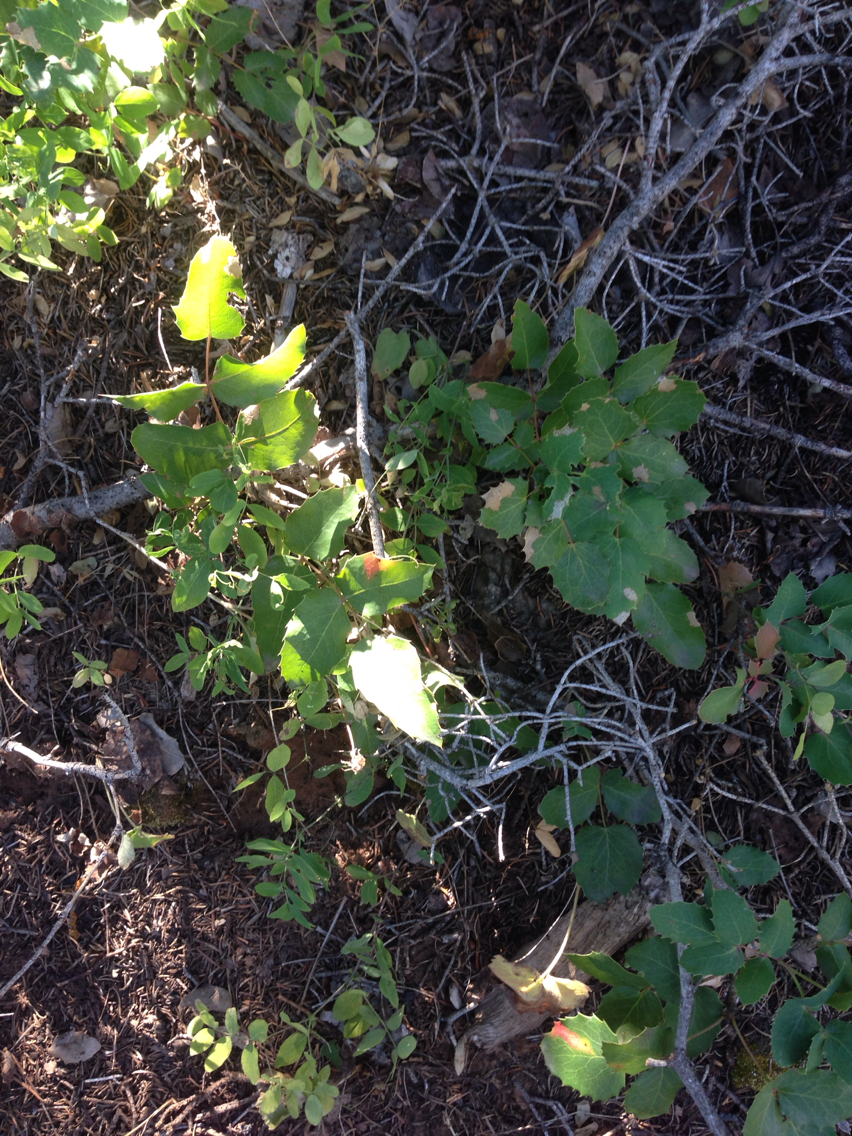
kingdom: Plantae
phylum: Tracheophyta
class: Magnoliopsida
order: Ranunculales
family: Berberidaceae
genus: Mahonia
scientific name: Mahonia repens
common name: Creeping oregon-grape
